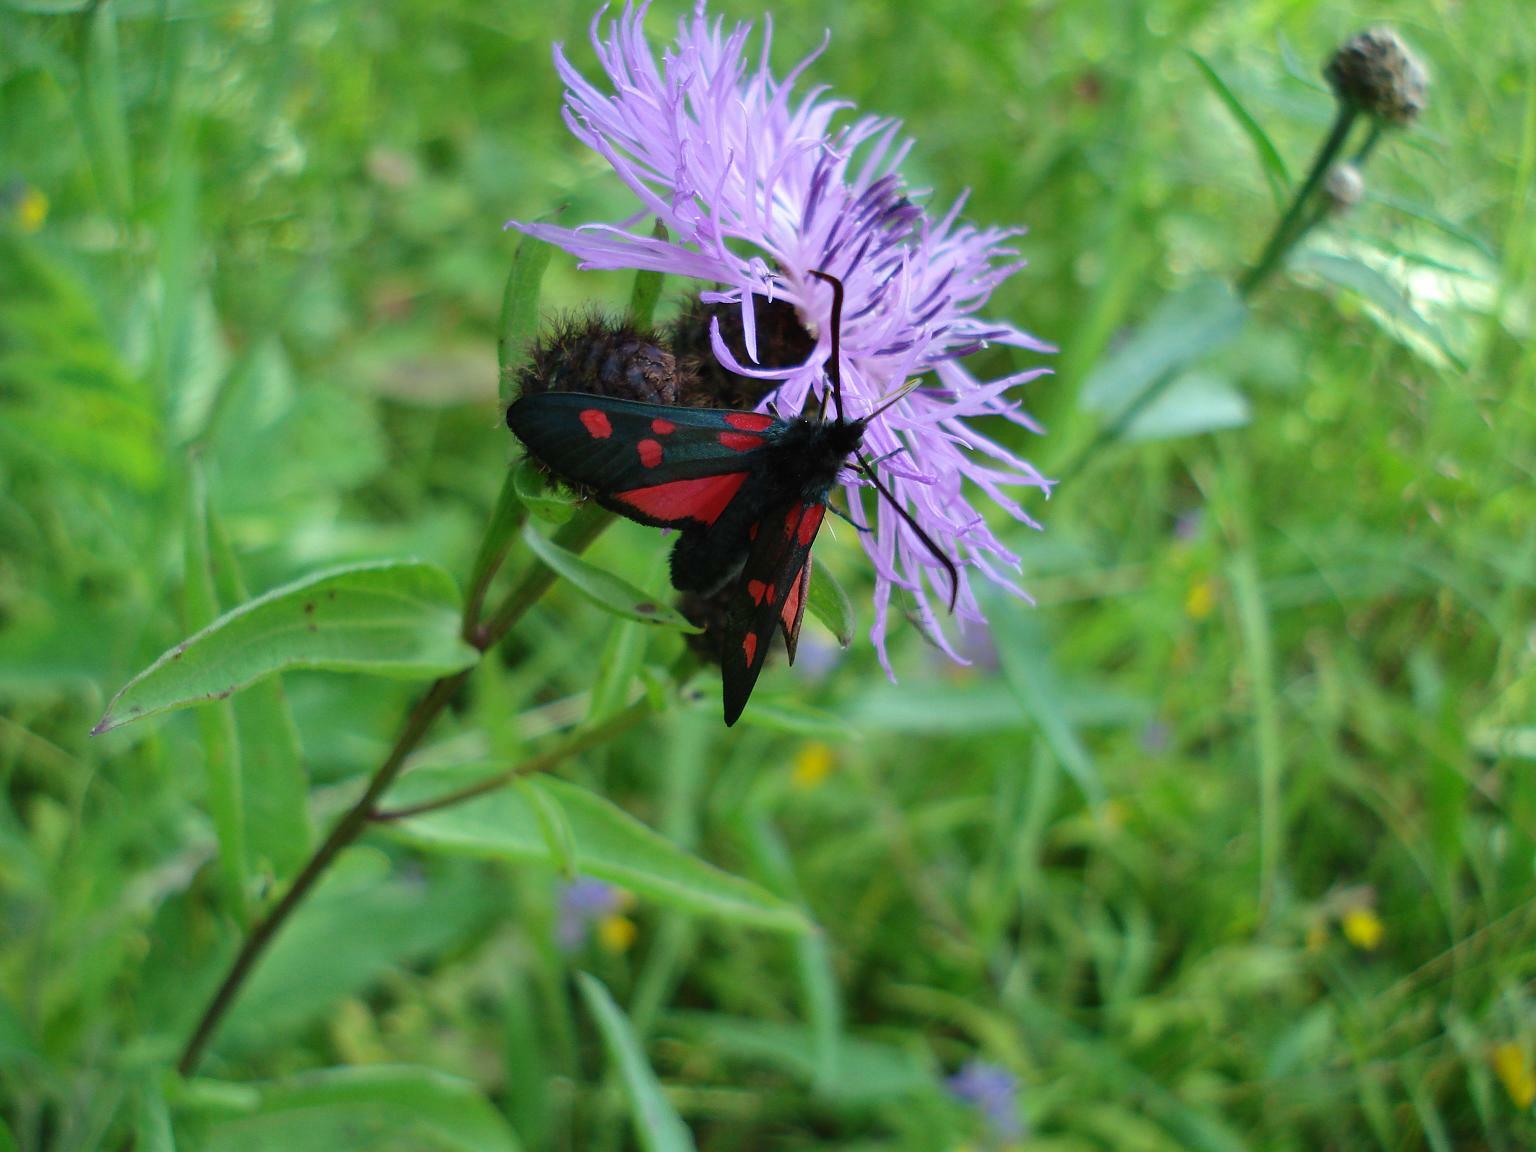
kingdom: Animalia
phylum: Arthropoda
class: Insecta
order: Lepidoptera
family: Zygaenidae
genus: Zygaena
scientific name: Zygaena lonicerae
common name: Narrow-bordered five-spot burnet
